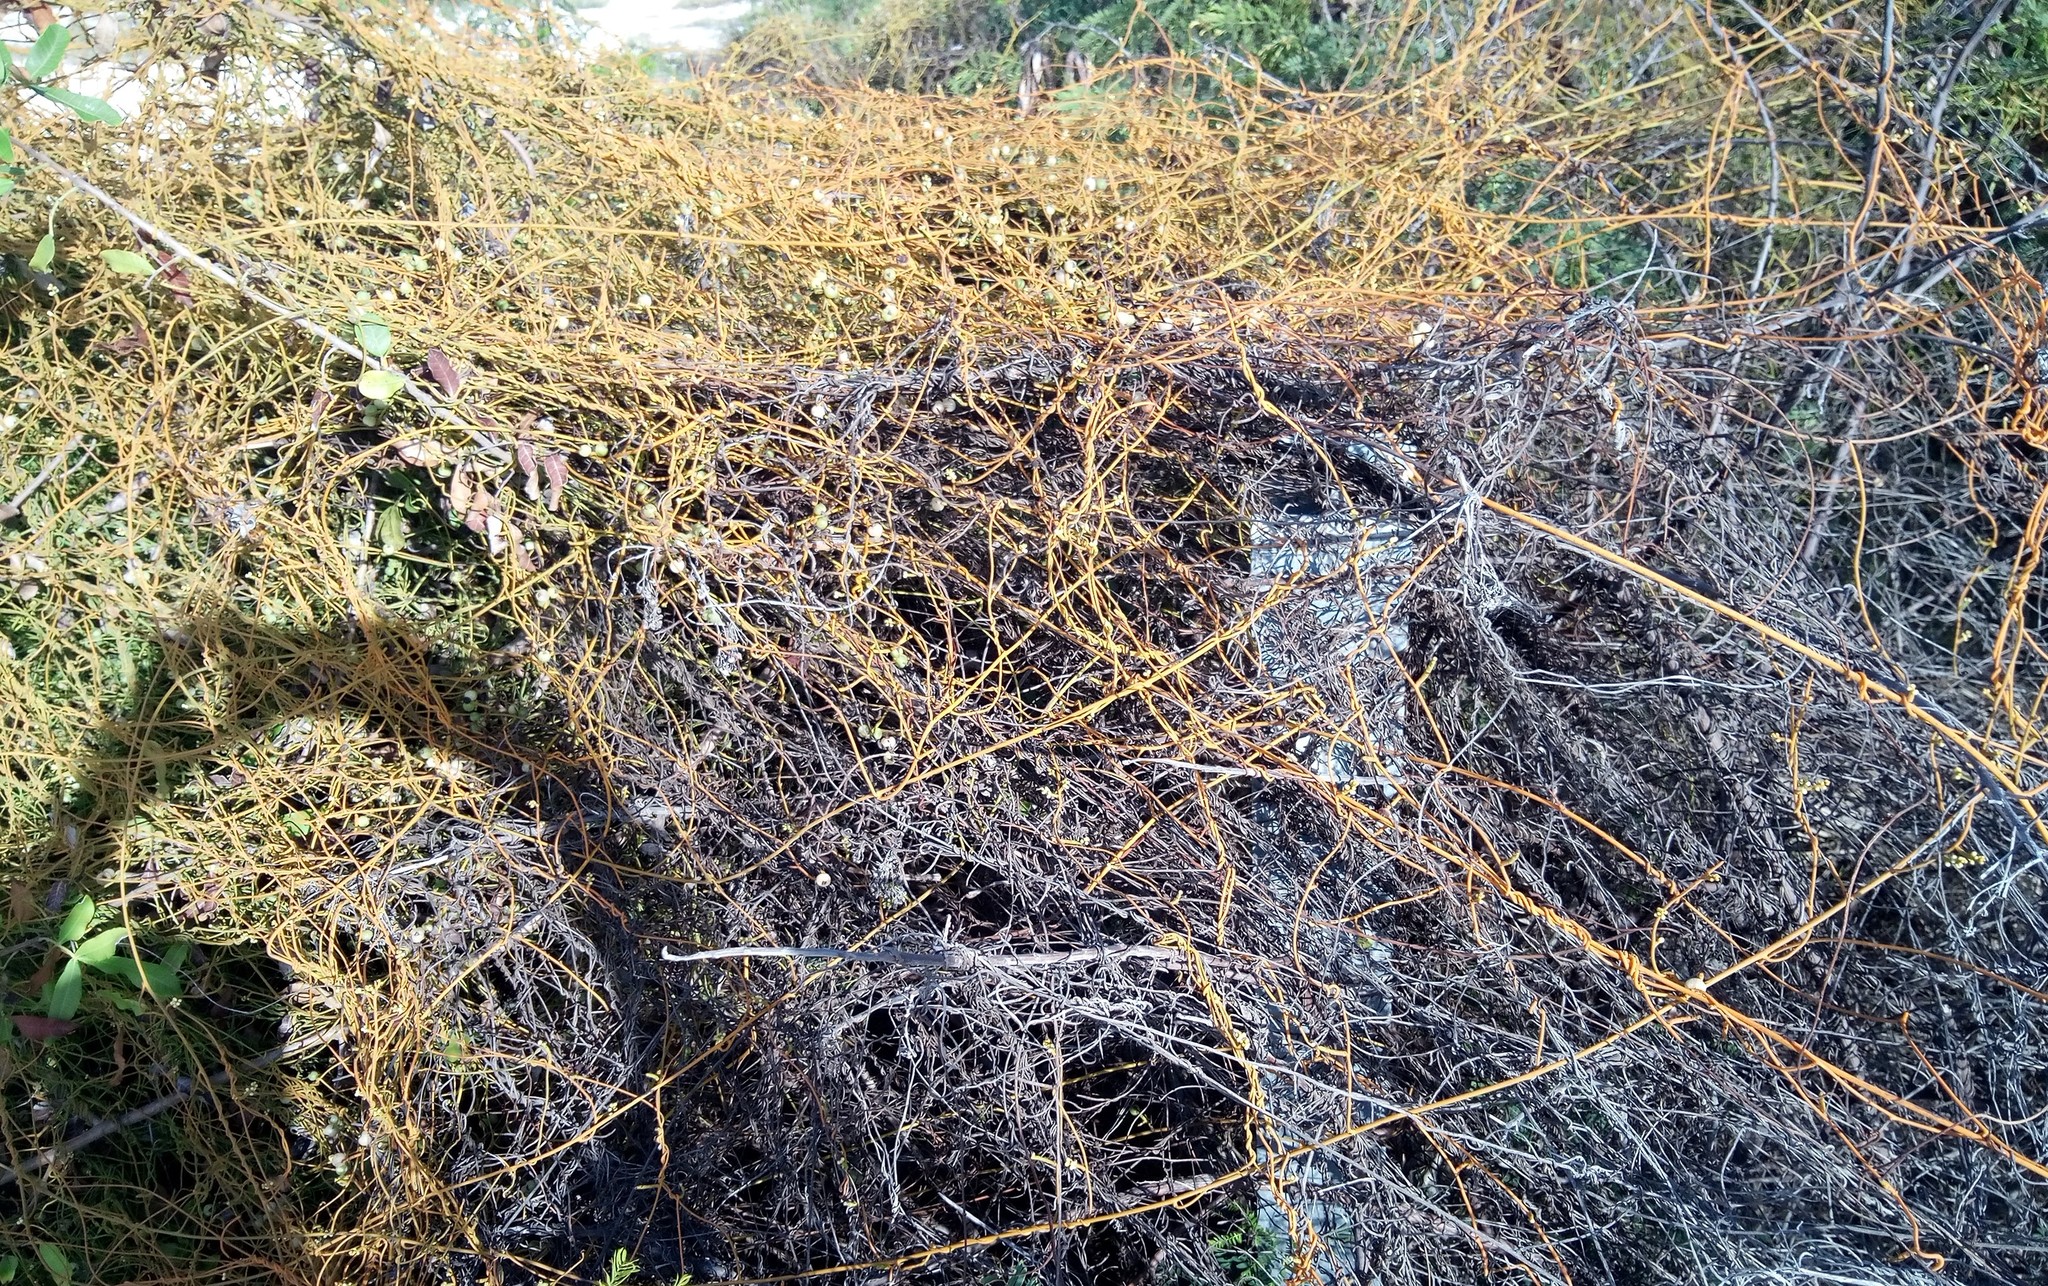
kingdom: Plantae
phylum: Tracheophyta
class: Magnoliopsida
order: Laurales
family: Lauraceae
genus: Cassytha
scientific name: Cassytha filiformis
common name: Dodder-laurel
